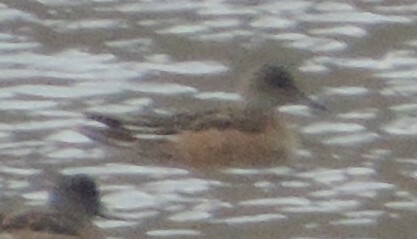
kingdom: Animalia
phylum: Chordata
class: Aves
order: Anseriformes
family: Anatidae
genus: Mareca
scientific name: Mareca americana
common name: American wigeon
